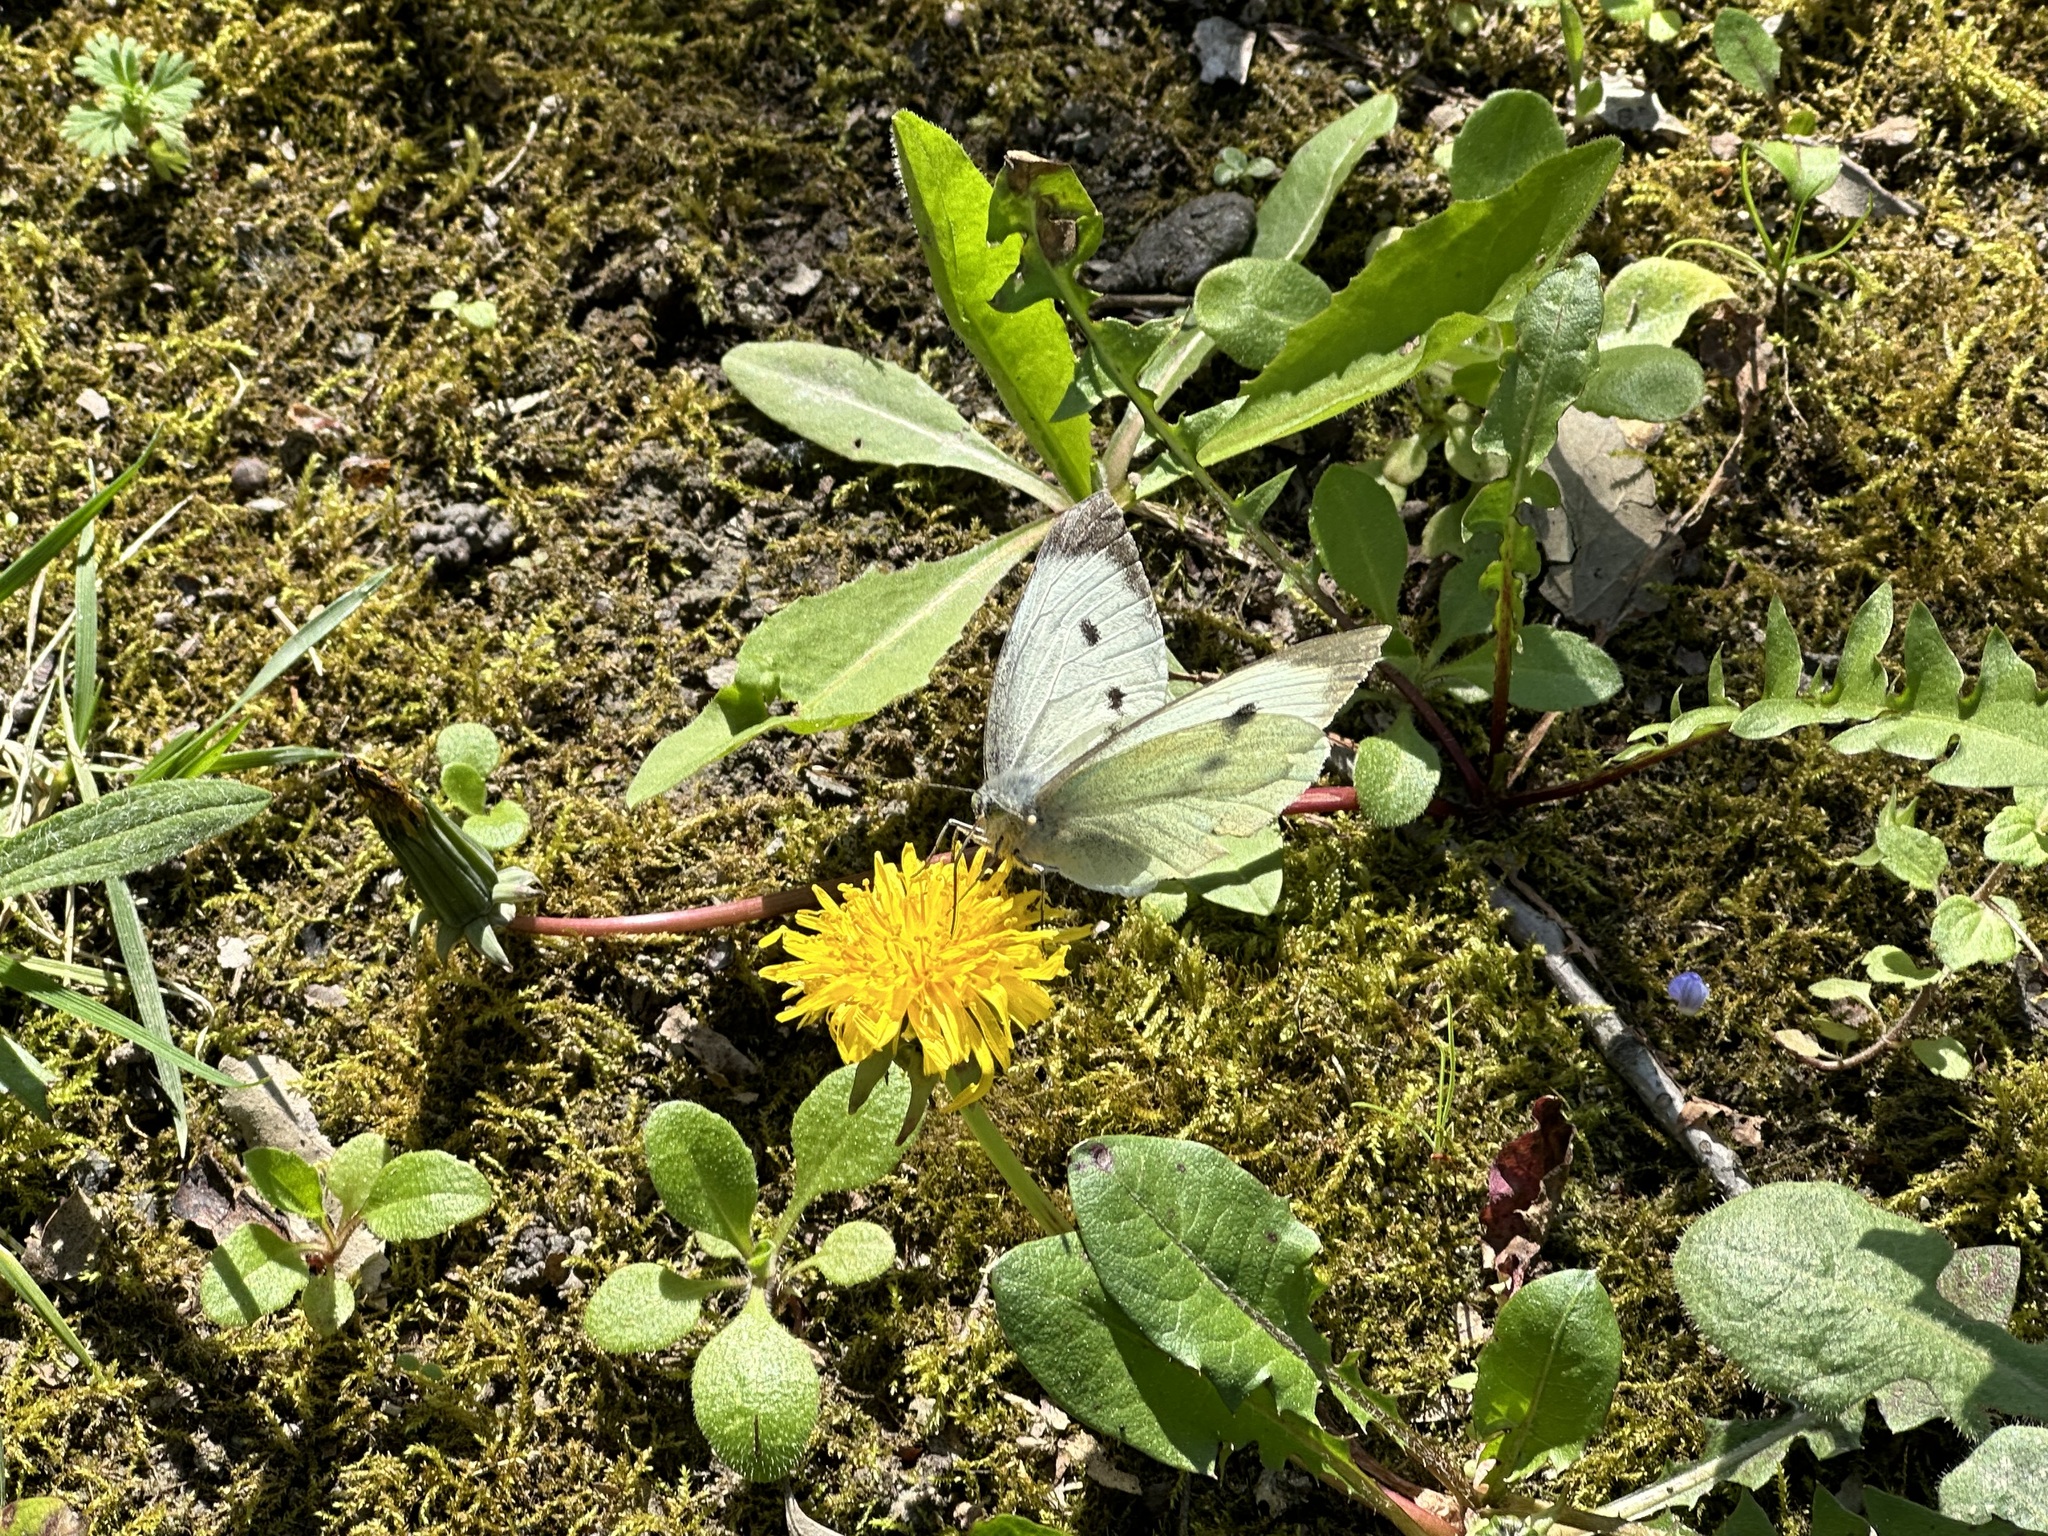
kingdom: Animalia
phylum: Arthropoda
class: Insecta
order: Lepidoptera
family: Pieridae
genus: Pieris
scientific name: Pieris brassicae
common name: Large white
